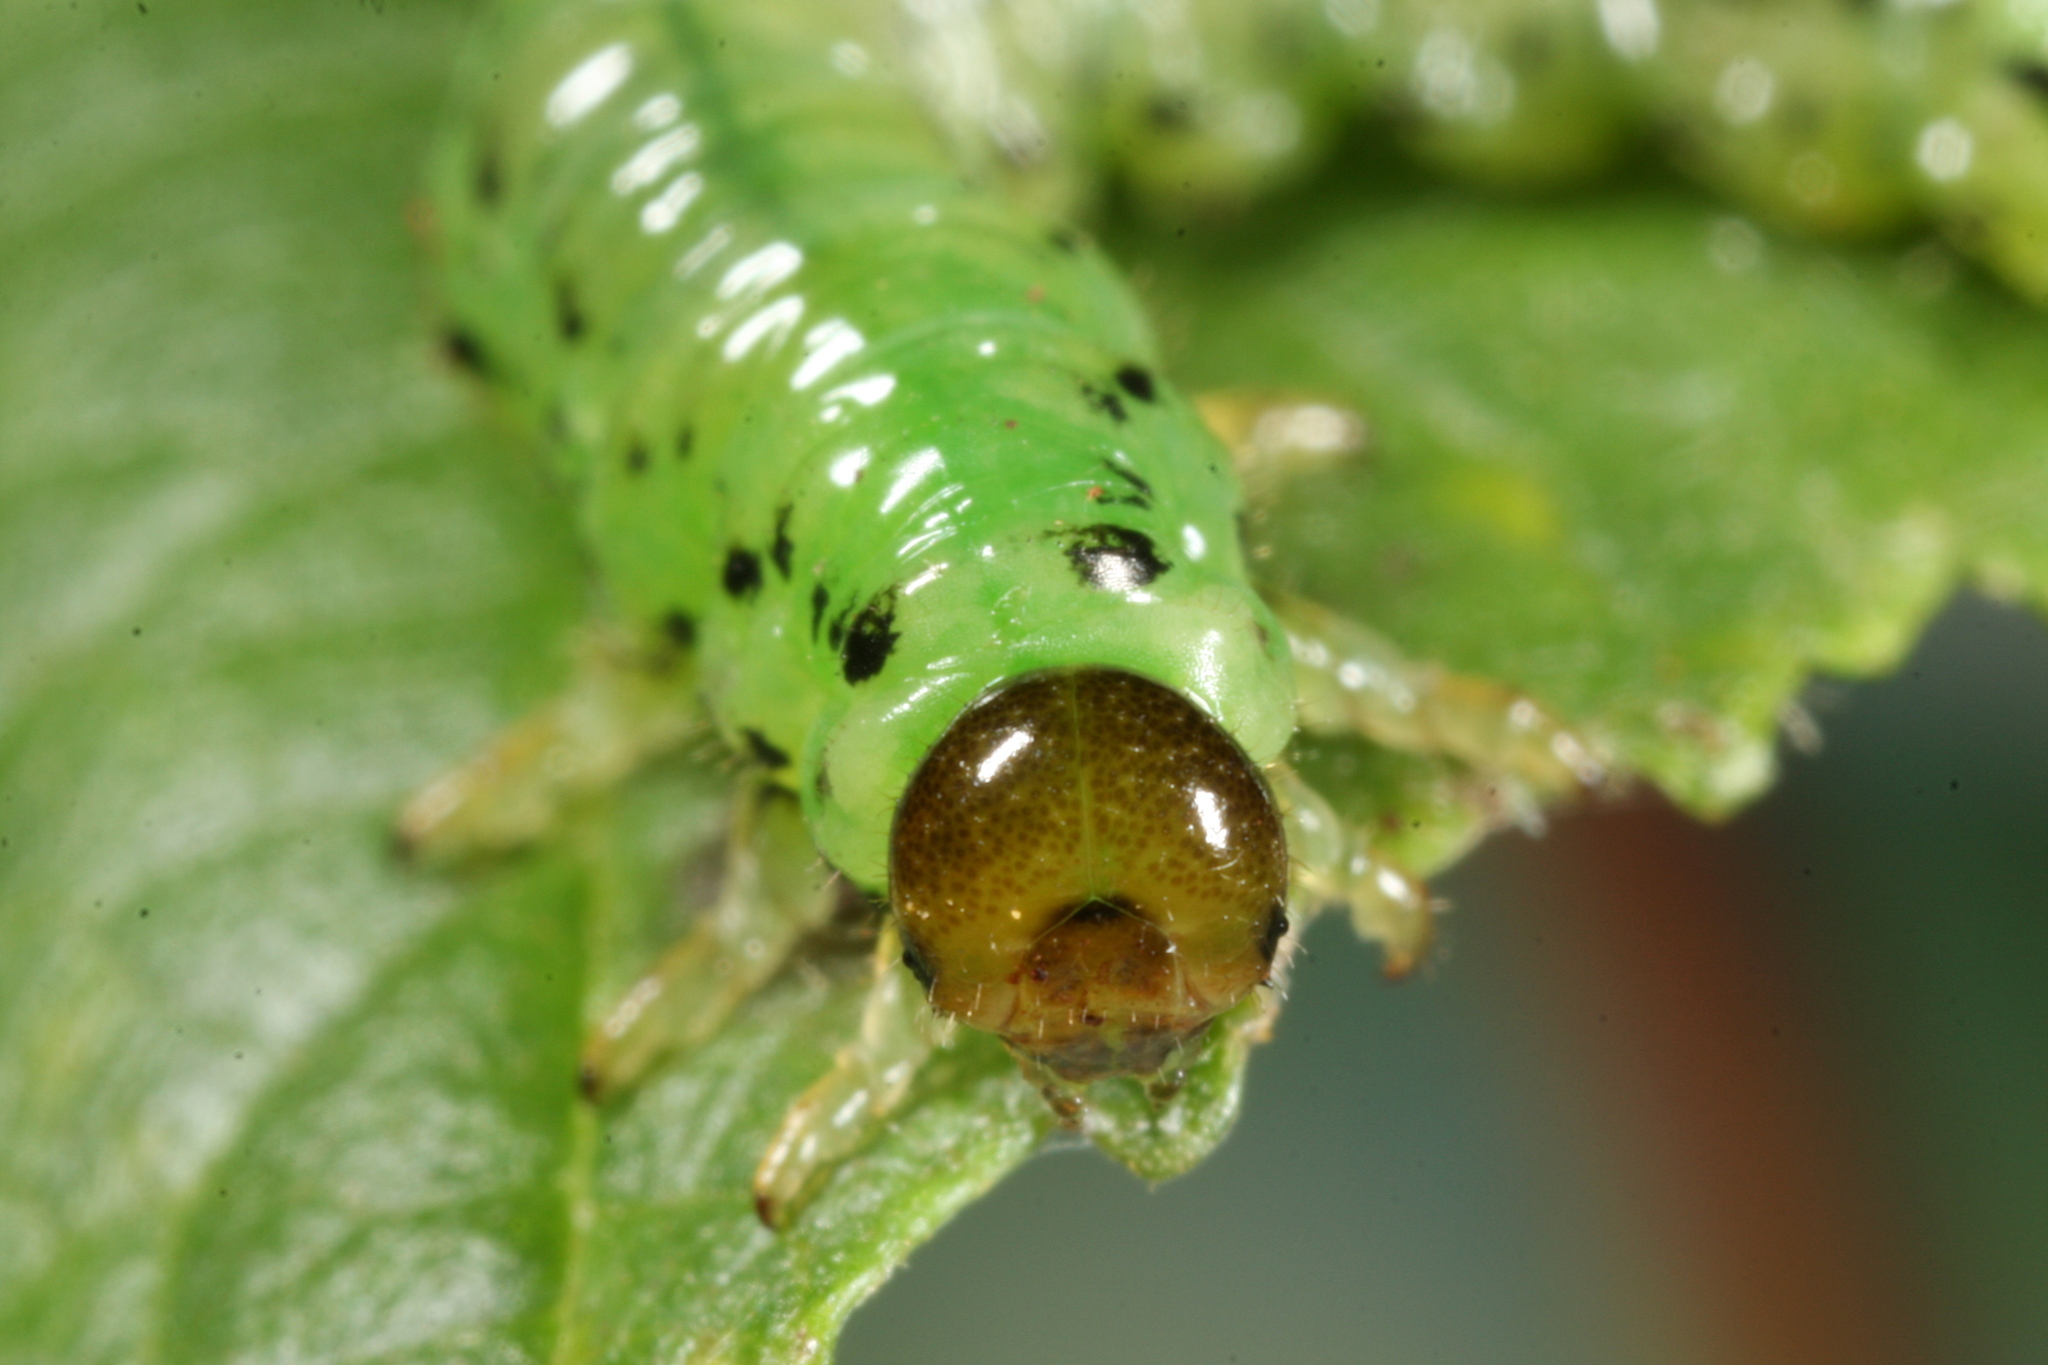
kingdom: Animalia
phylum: Arthropoda
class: Insecta
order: Hymenoptera
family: Tenthredinidae
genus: Craesus
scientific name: Craesus alniastri
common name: Sawfly
